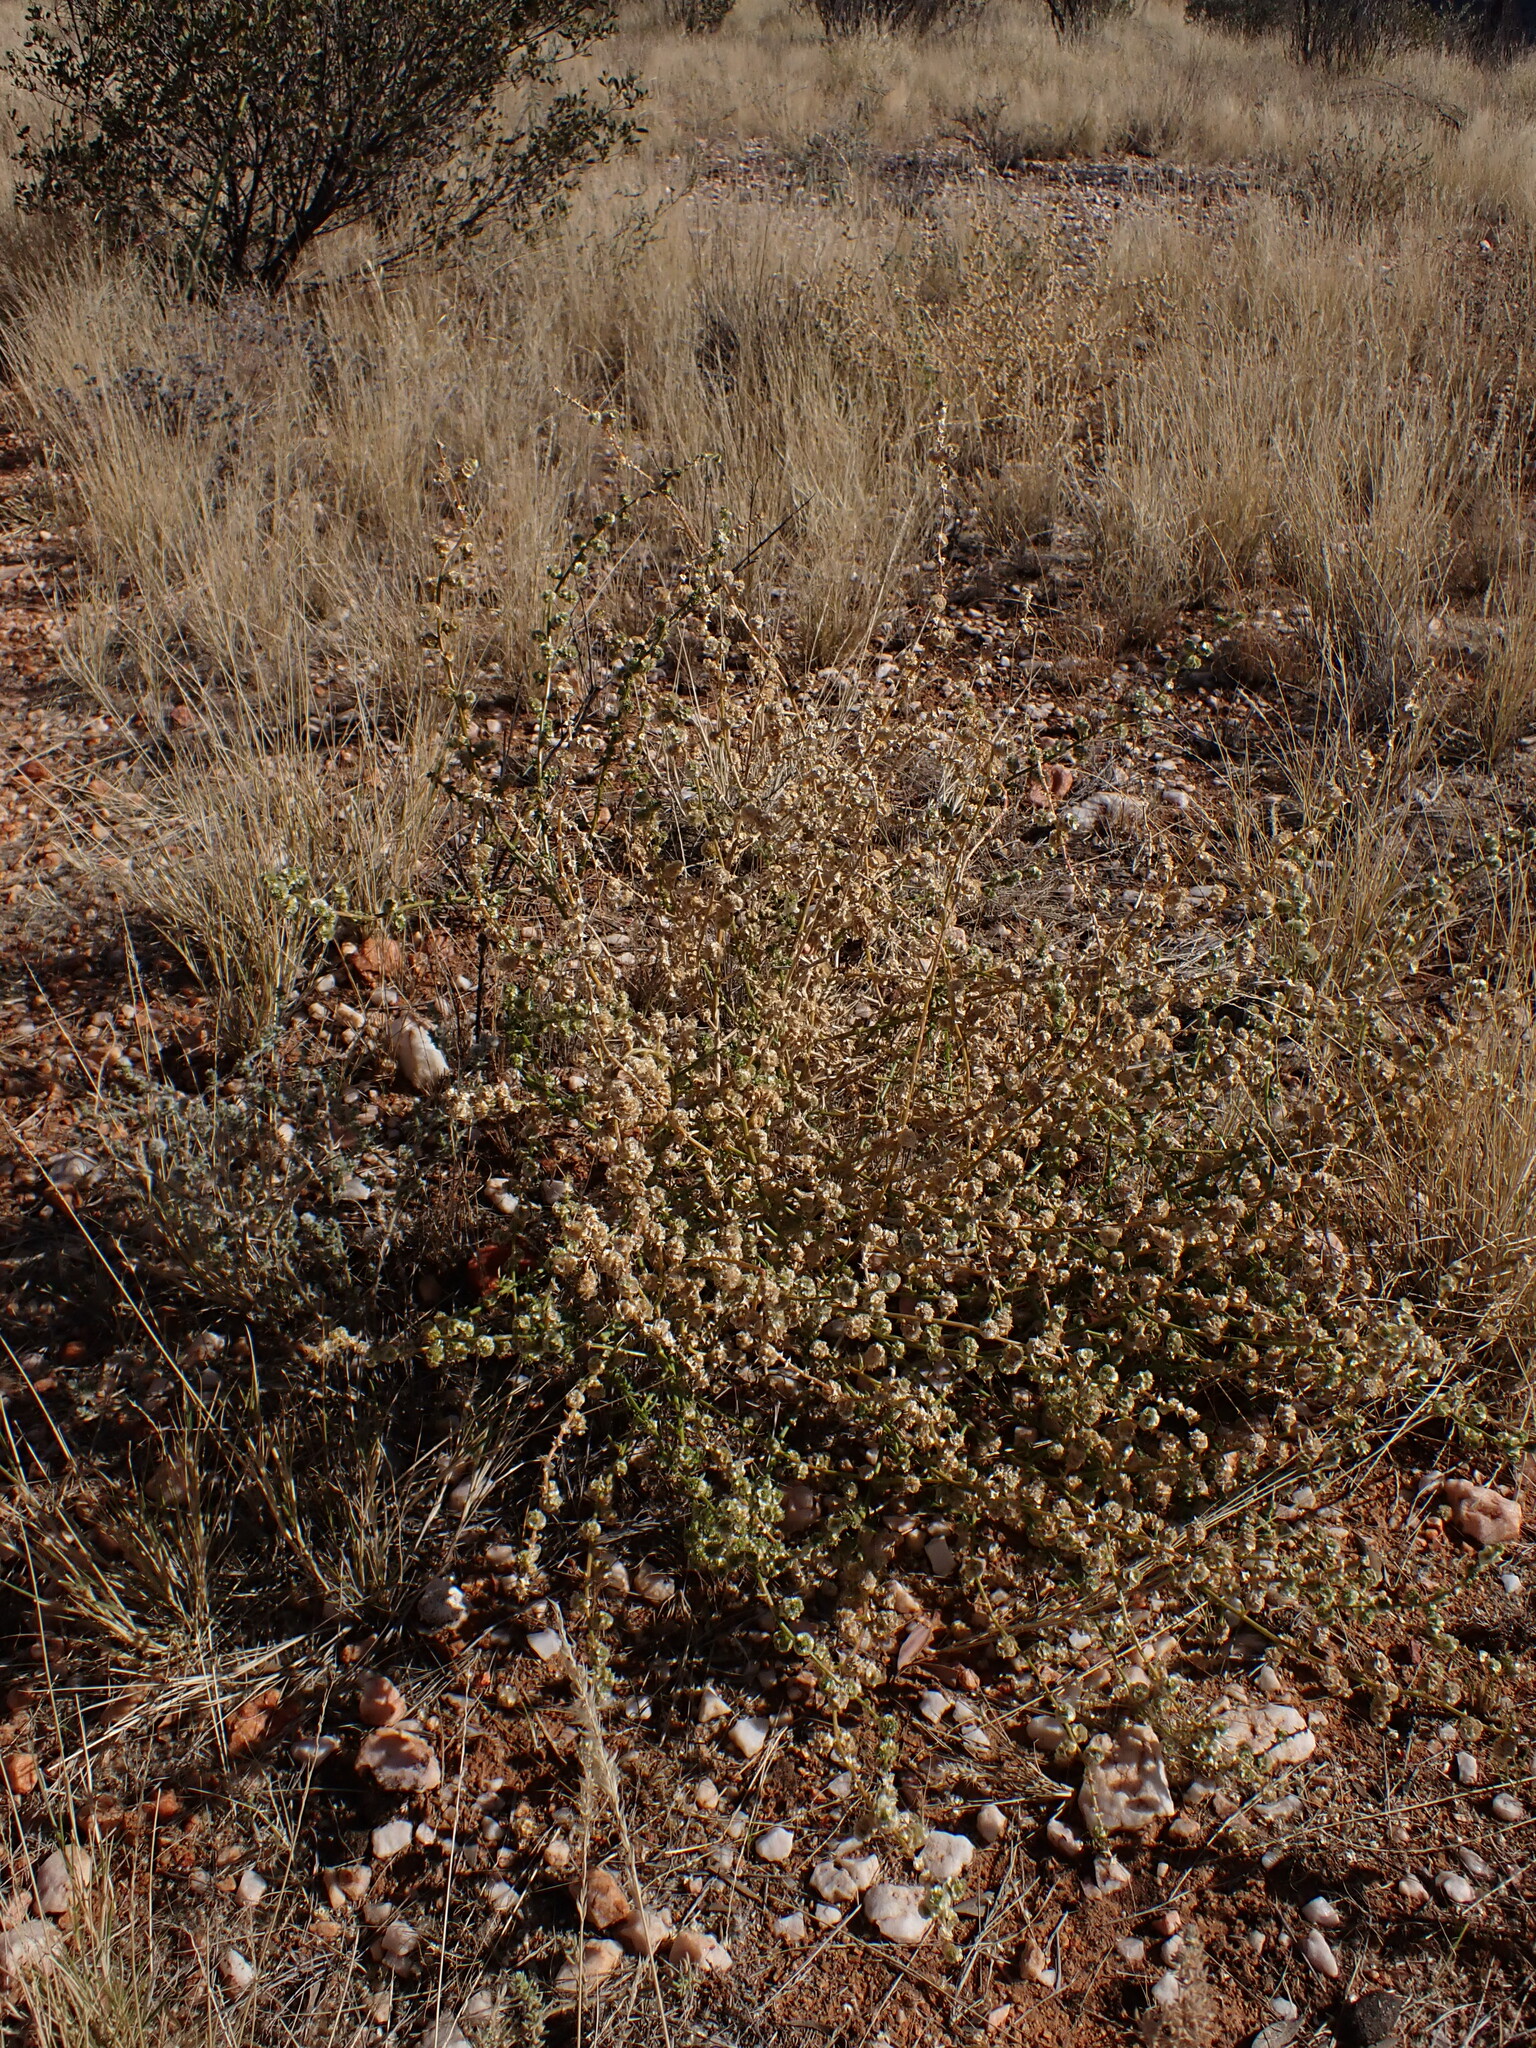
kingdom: Plantae
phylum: Tracheophyta
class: Magnoliopsida
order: Caryophyllales
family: Amaranthaceae
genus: Salsola
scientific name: Salsola australis
